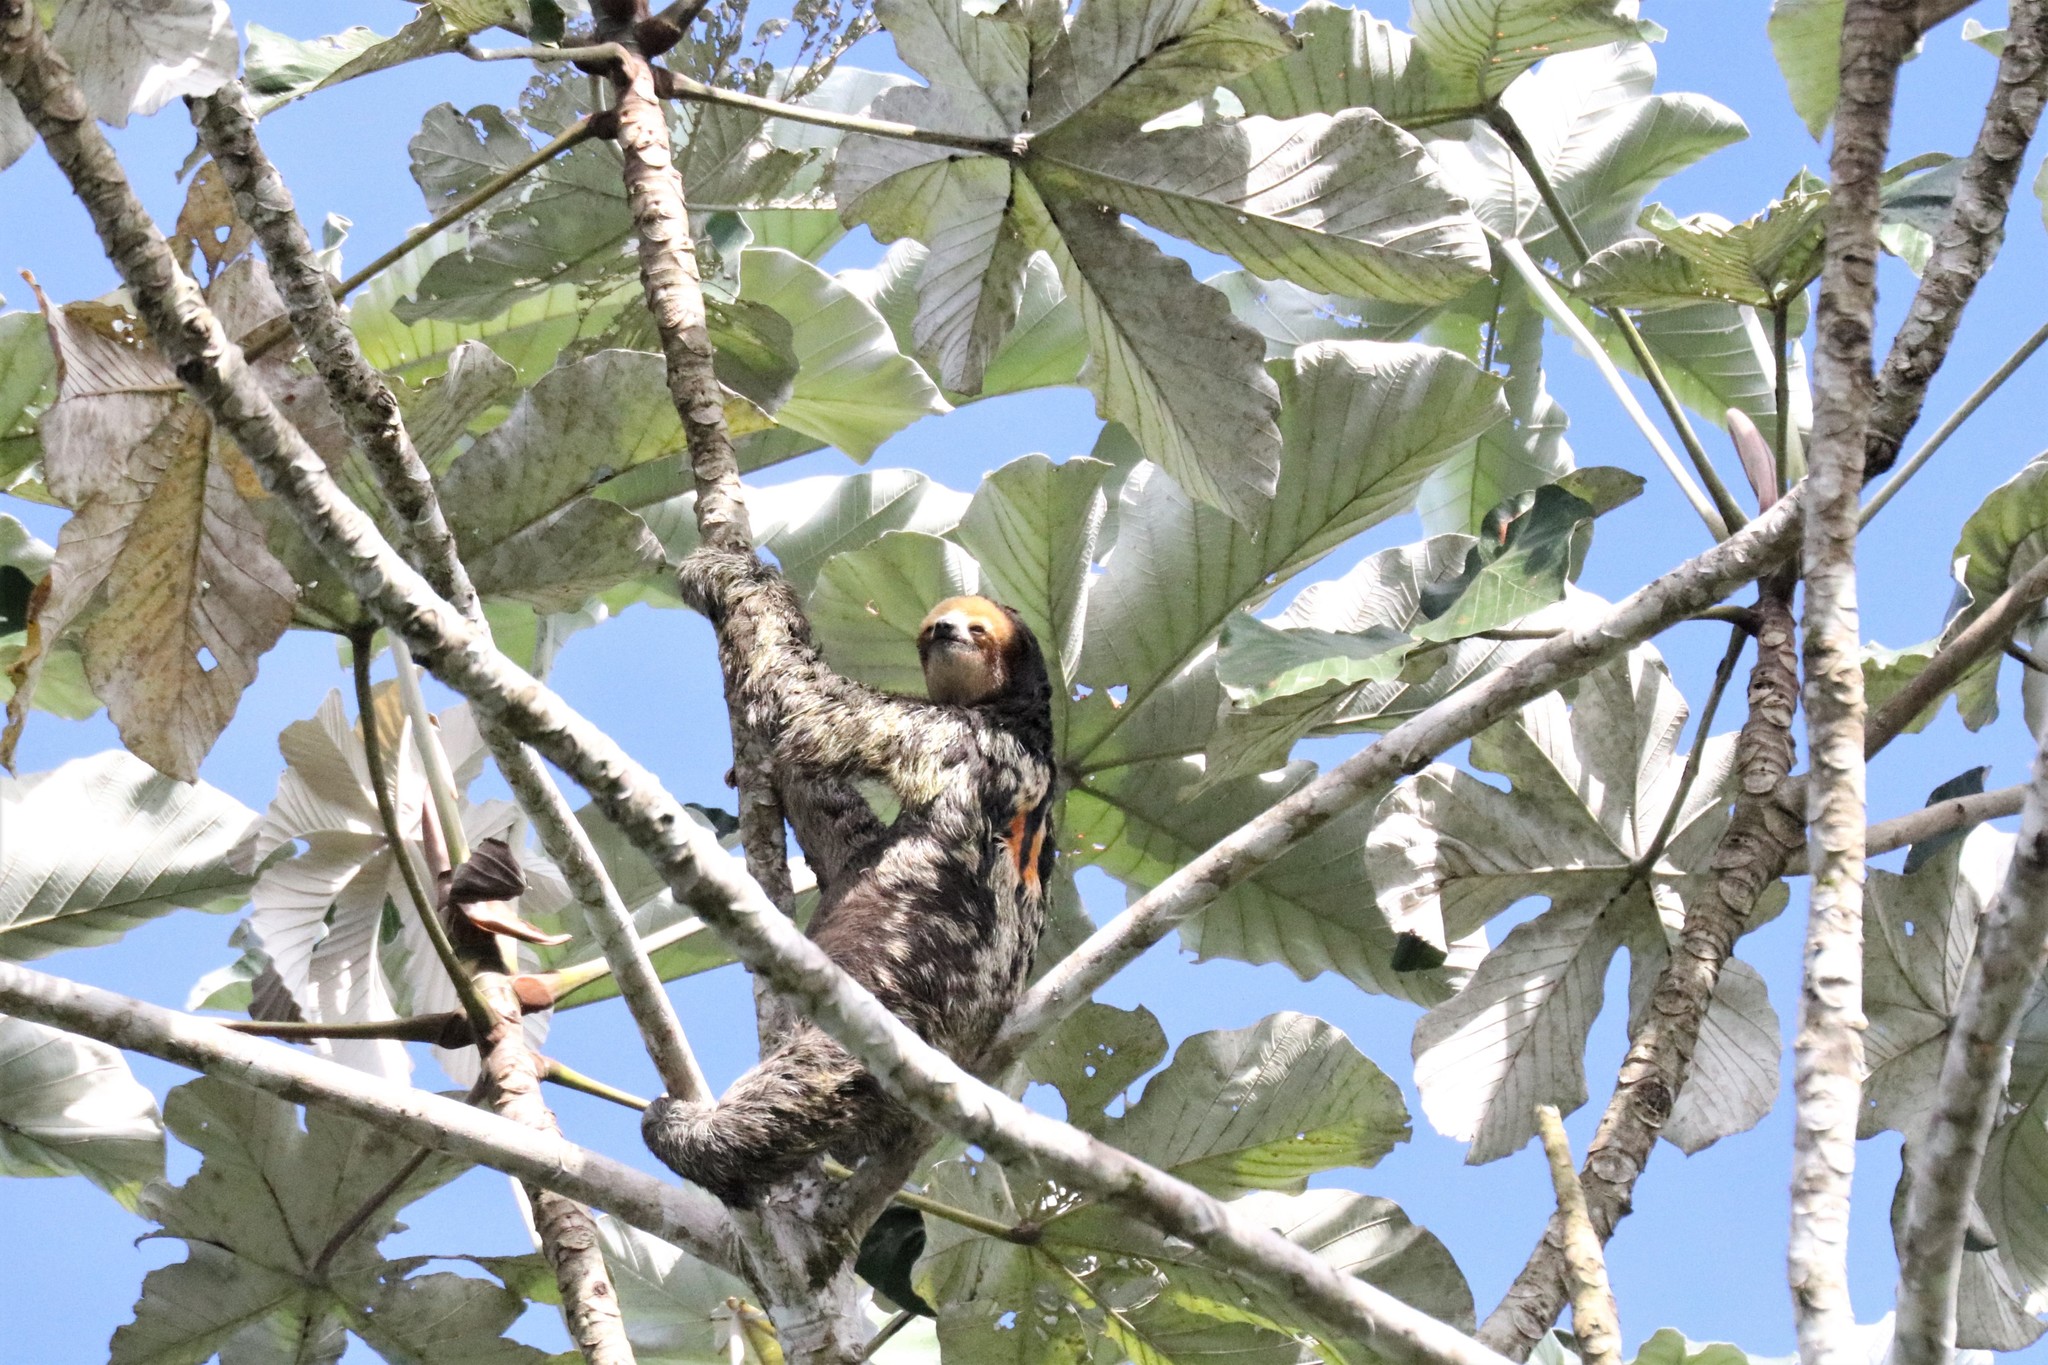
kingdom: Animalia
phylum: Chordata
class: Mammalia
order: Pilosa
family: Bradypodidae
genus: Bradypus
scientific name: Bradypus tridactylus
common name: Pale-throated three-toed sloth
